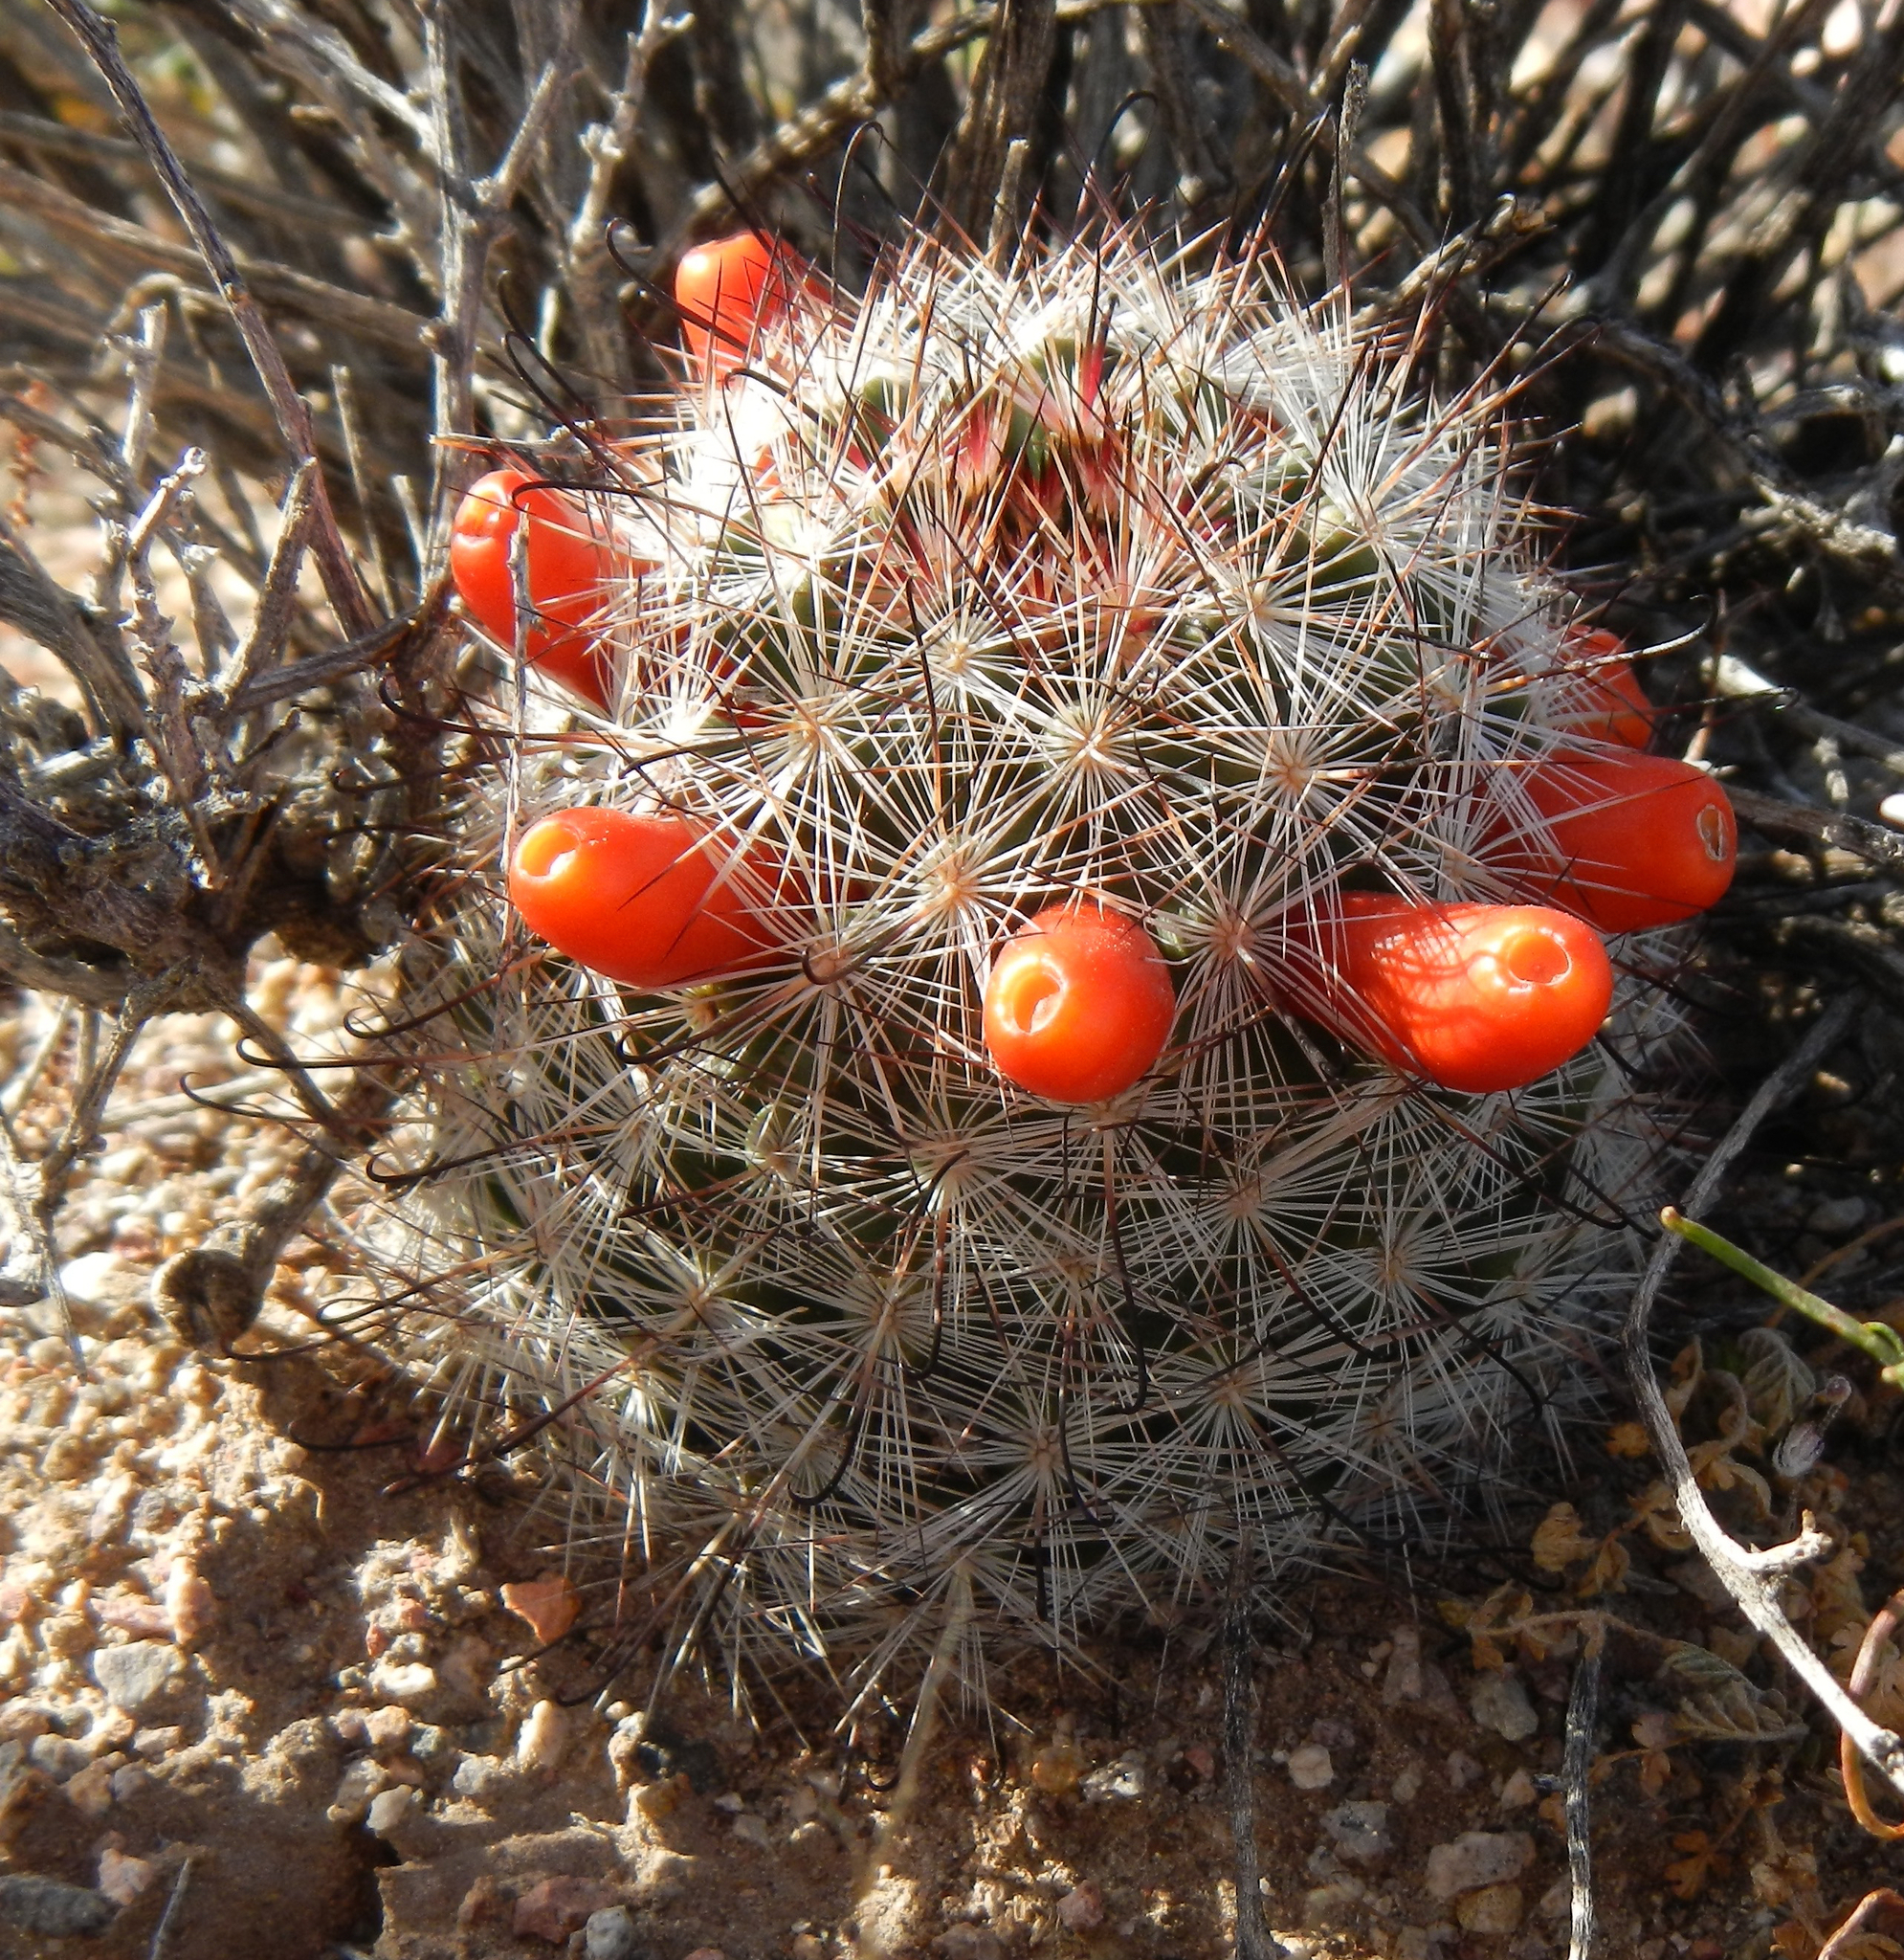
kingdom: Plantae
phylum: Tracheophyta
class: Magnoliopsida
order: Caryophyllales
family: Cactaceae
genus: Cochemiea
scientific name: Cochemiea tetrancistra
